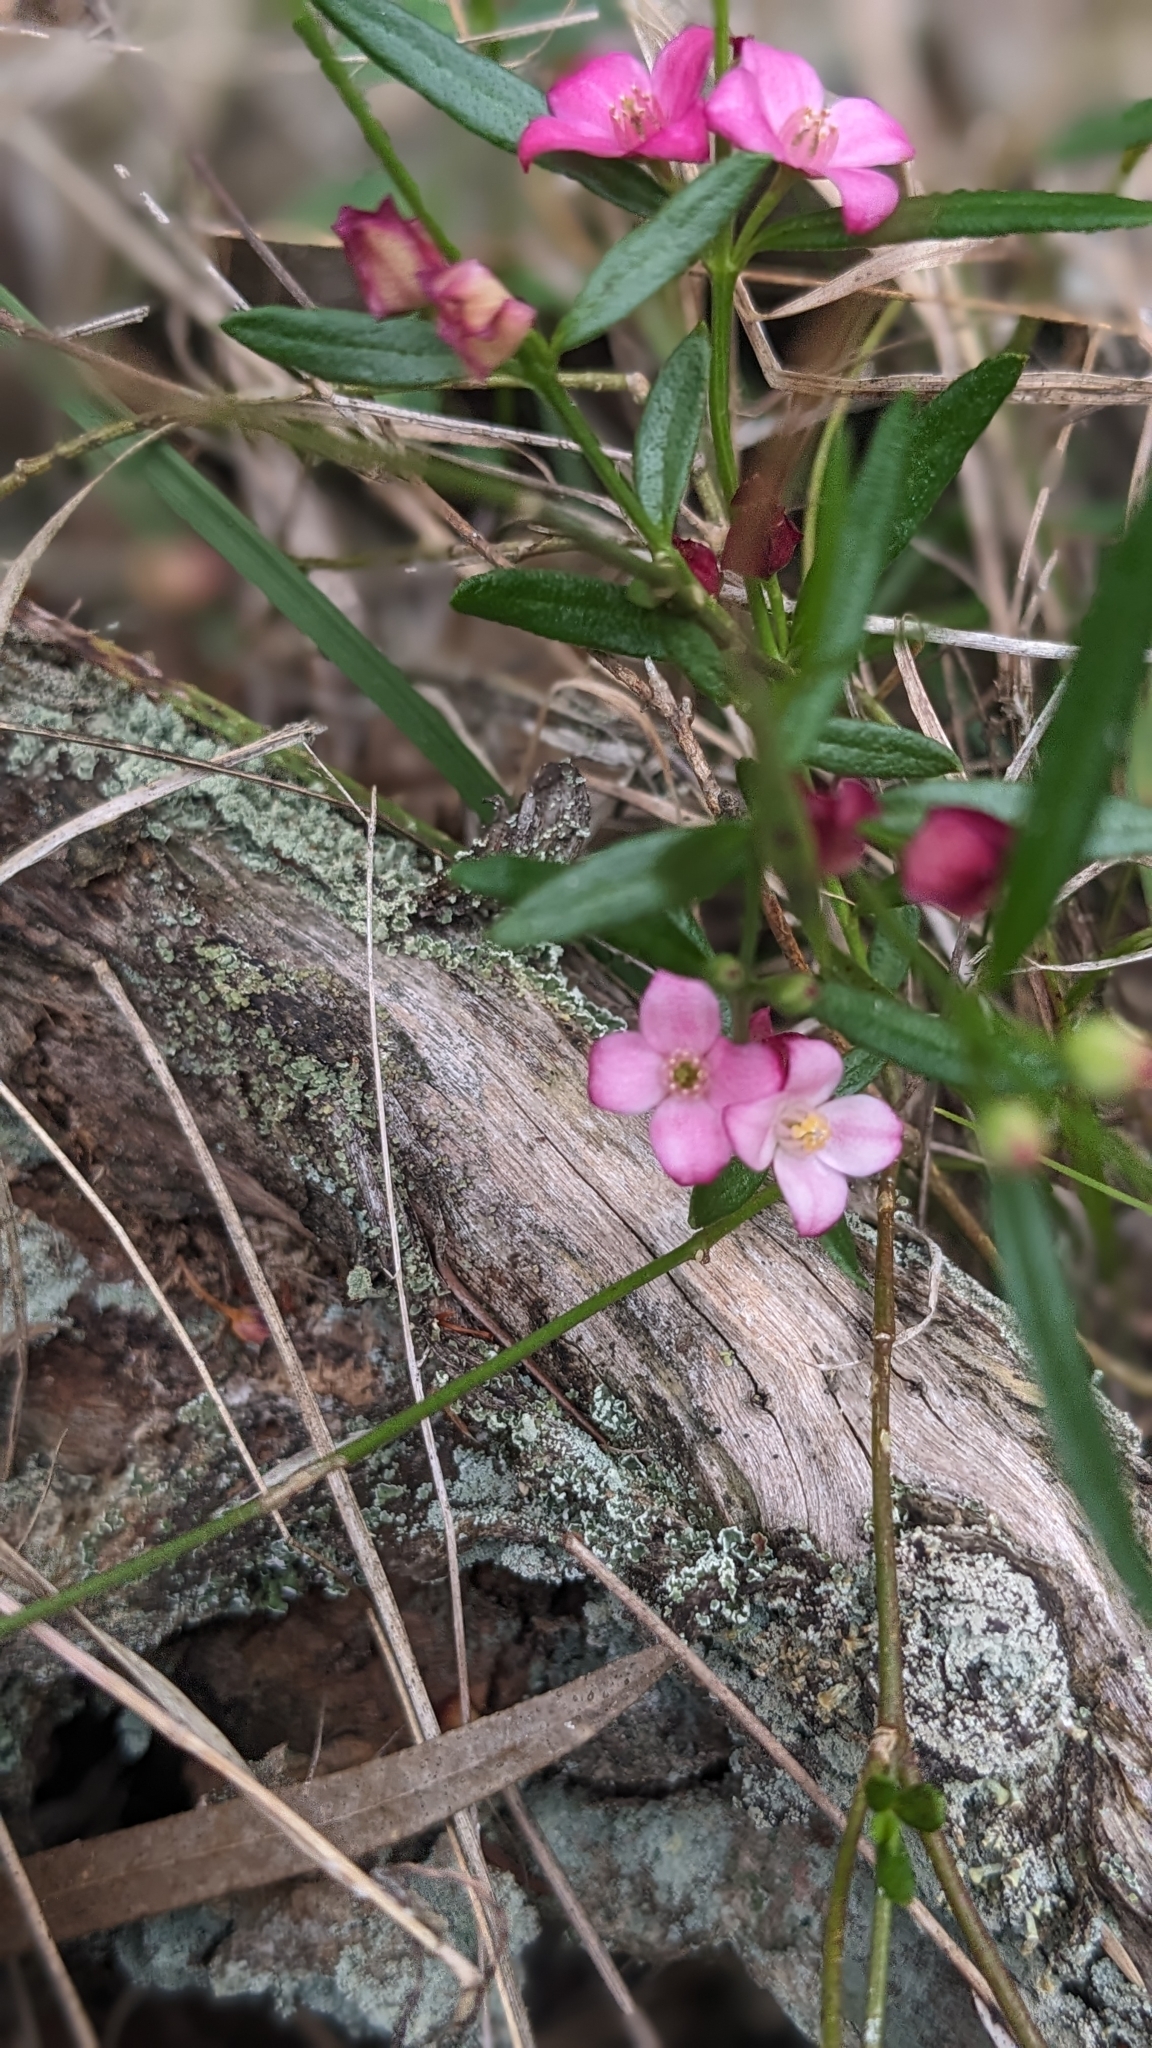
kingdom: Plantae
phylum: Tracheophyta
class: Magnoliopsida
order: Sapindales
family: Rutaceae
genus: Cyanothamnus
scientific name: Cyanothamnus polygalifolius
